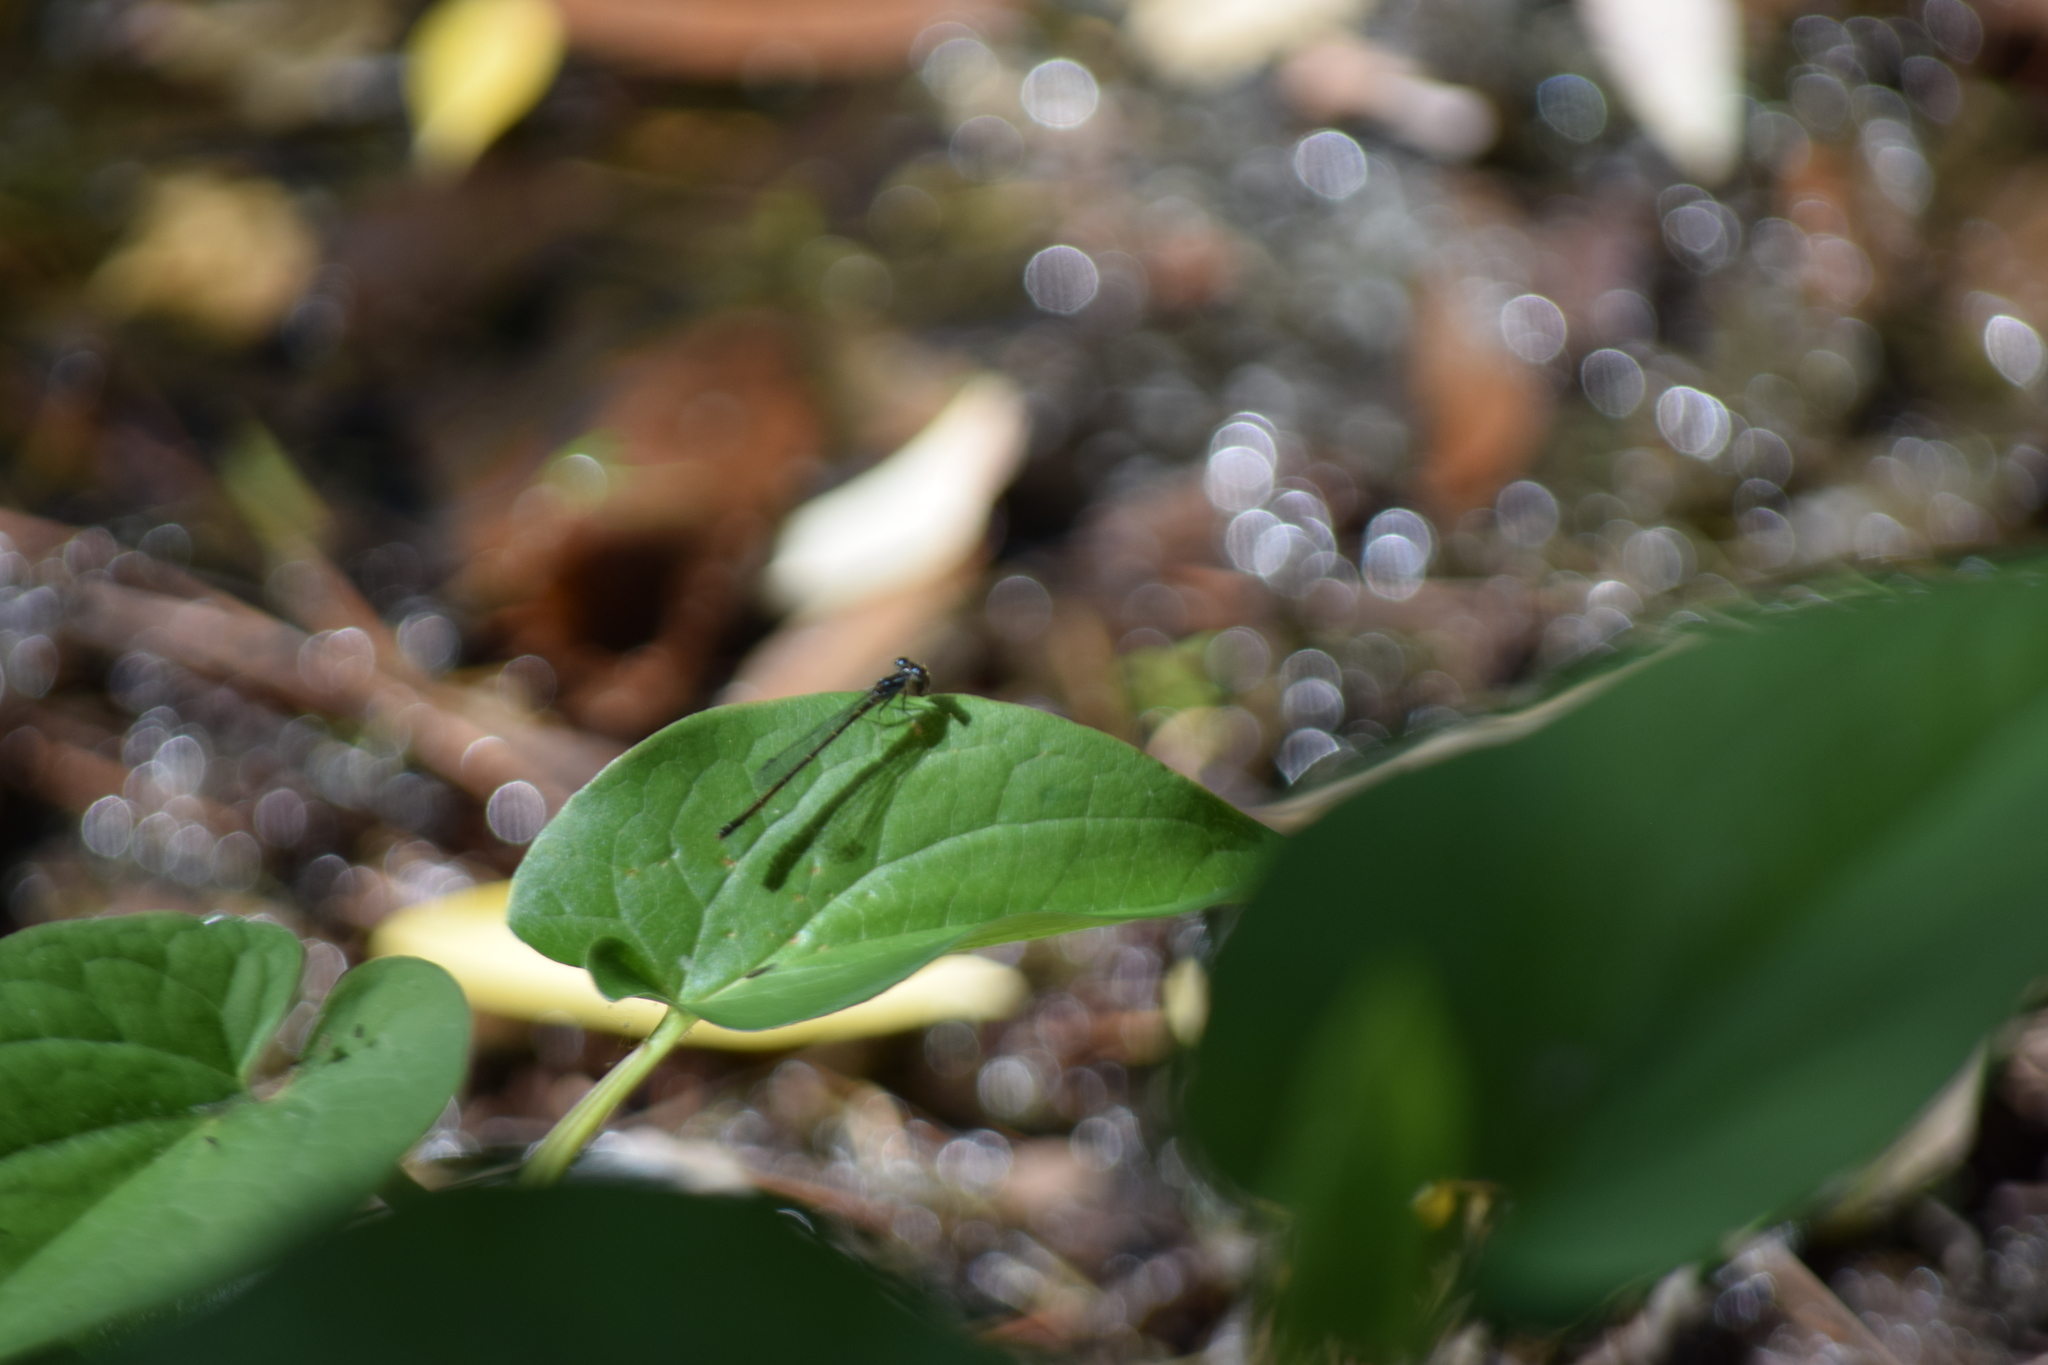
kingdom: Animalia
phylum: Arthropoda
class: Insecta
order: Odonata
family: Coenagrionidae
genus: Ischnura
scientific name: Ischnura posita
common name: Fragile forktail
